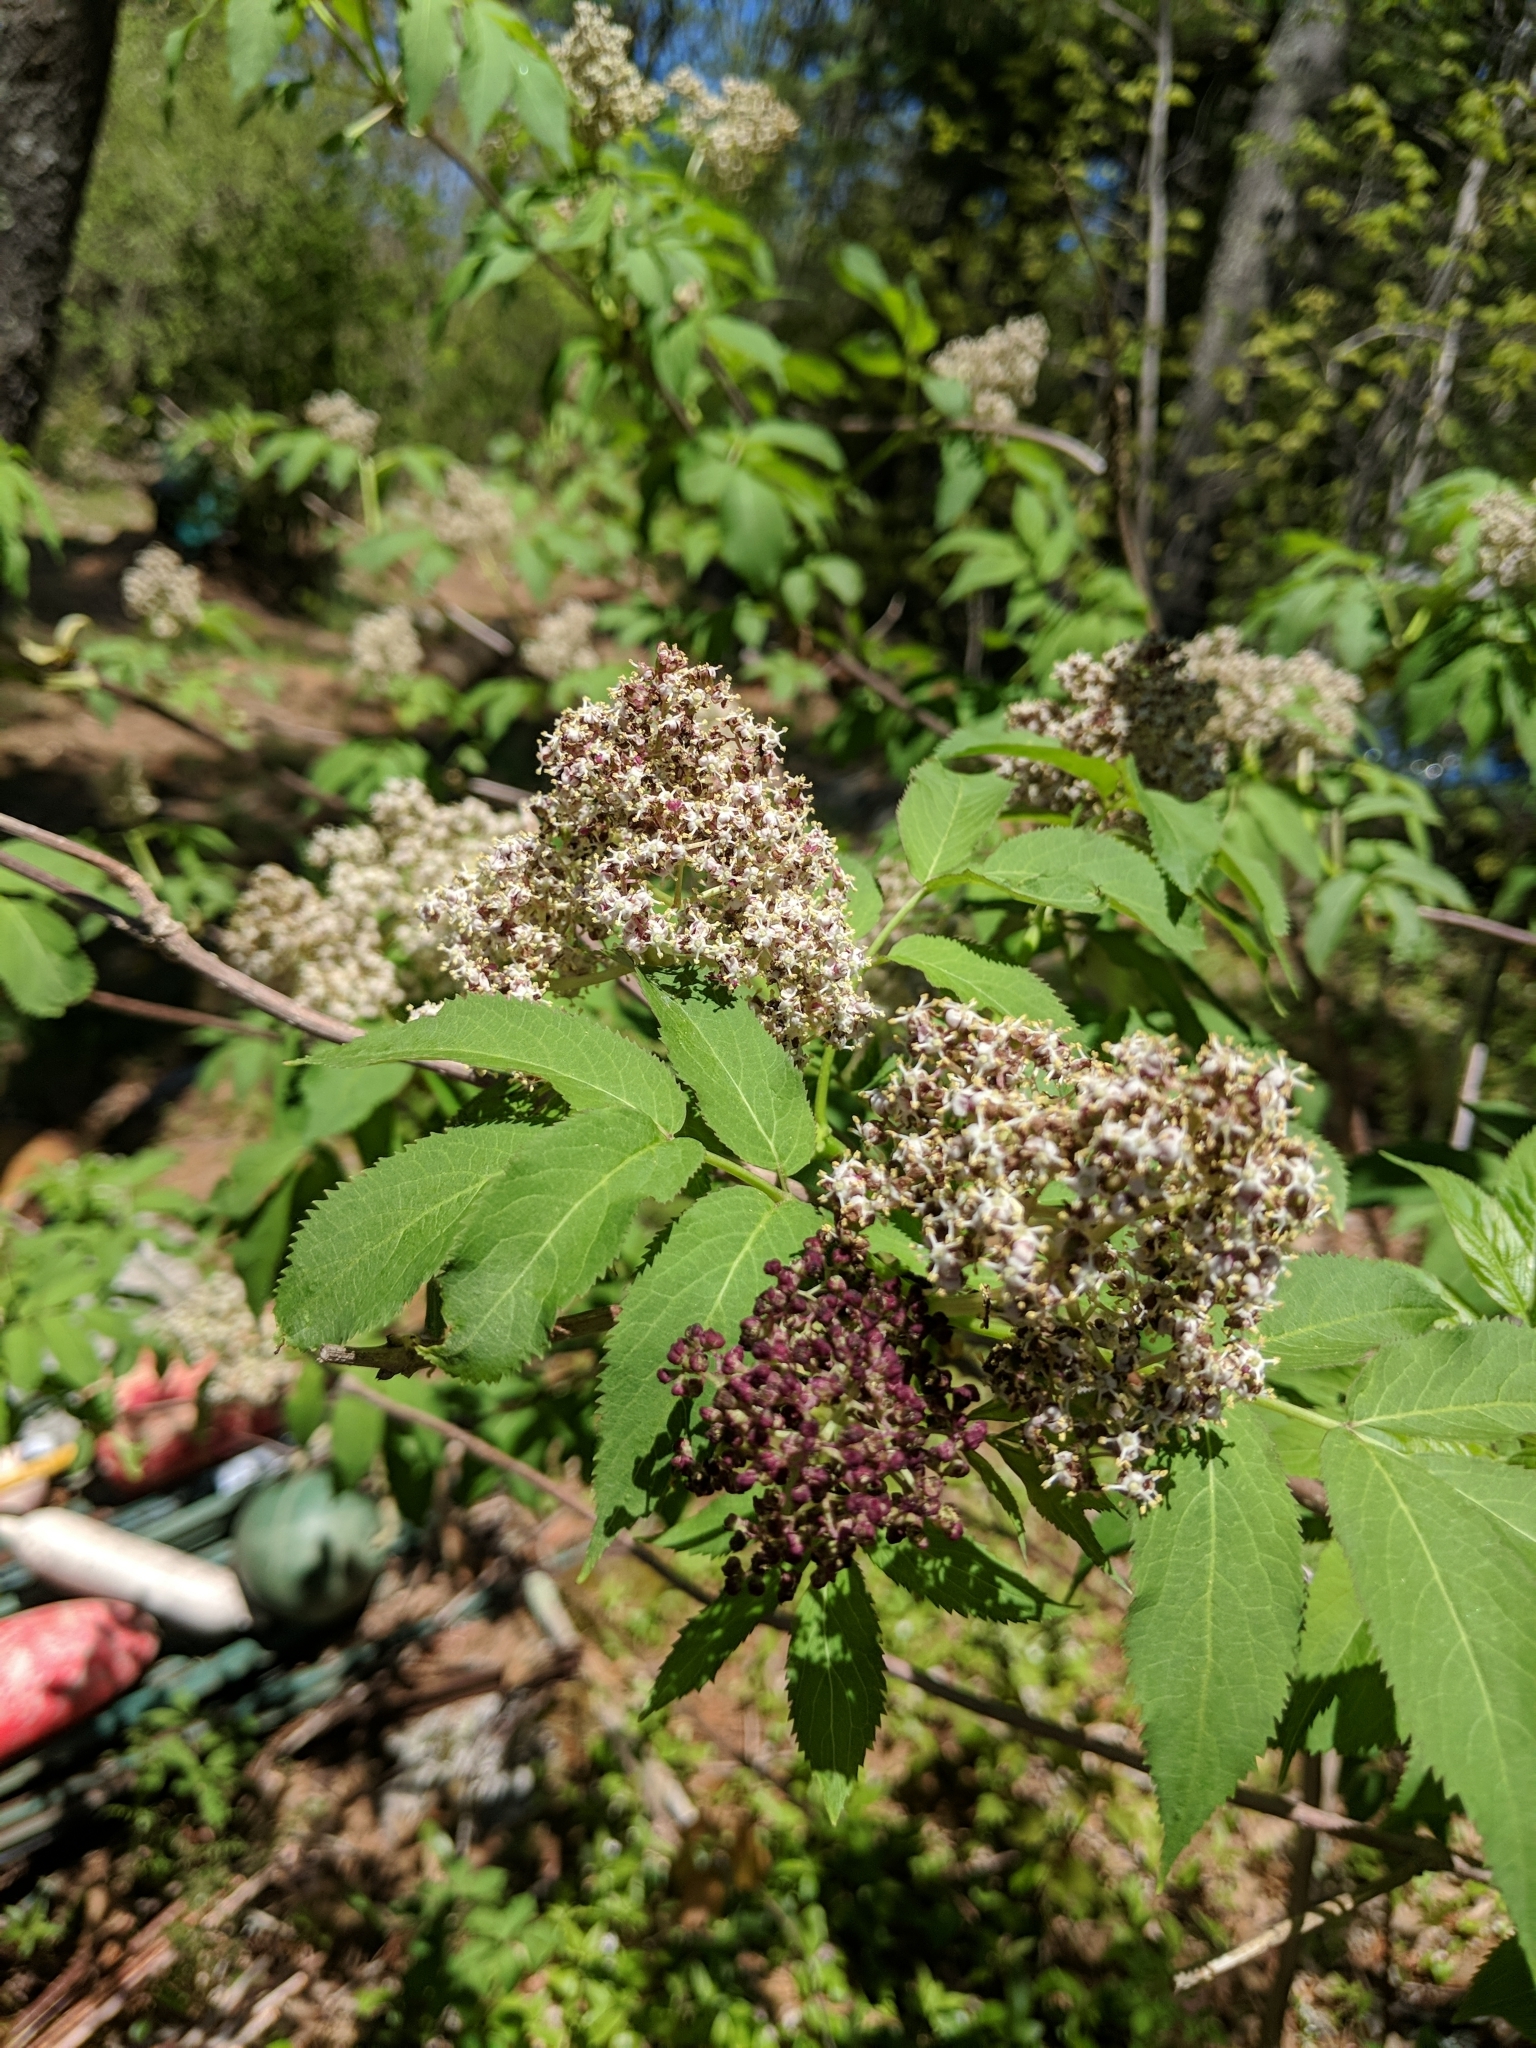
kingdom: Plantae
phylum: Tracheophyta
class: Magnoliopsida
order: Dipsacales
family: Viburnaceae
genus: Sambucus
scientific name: Sambucus racemosa
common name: Red-berried elder
